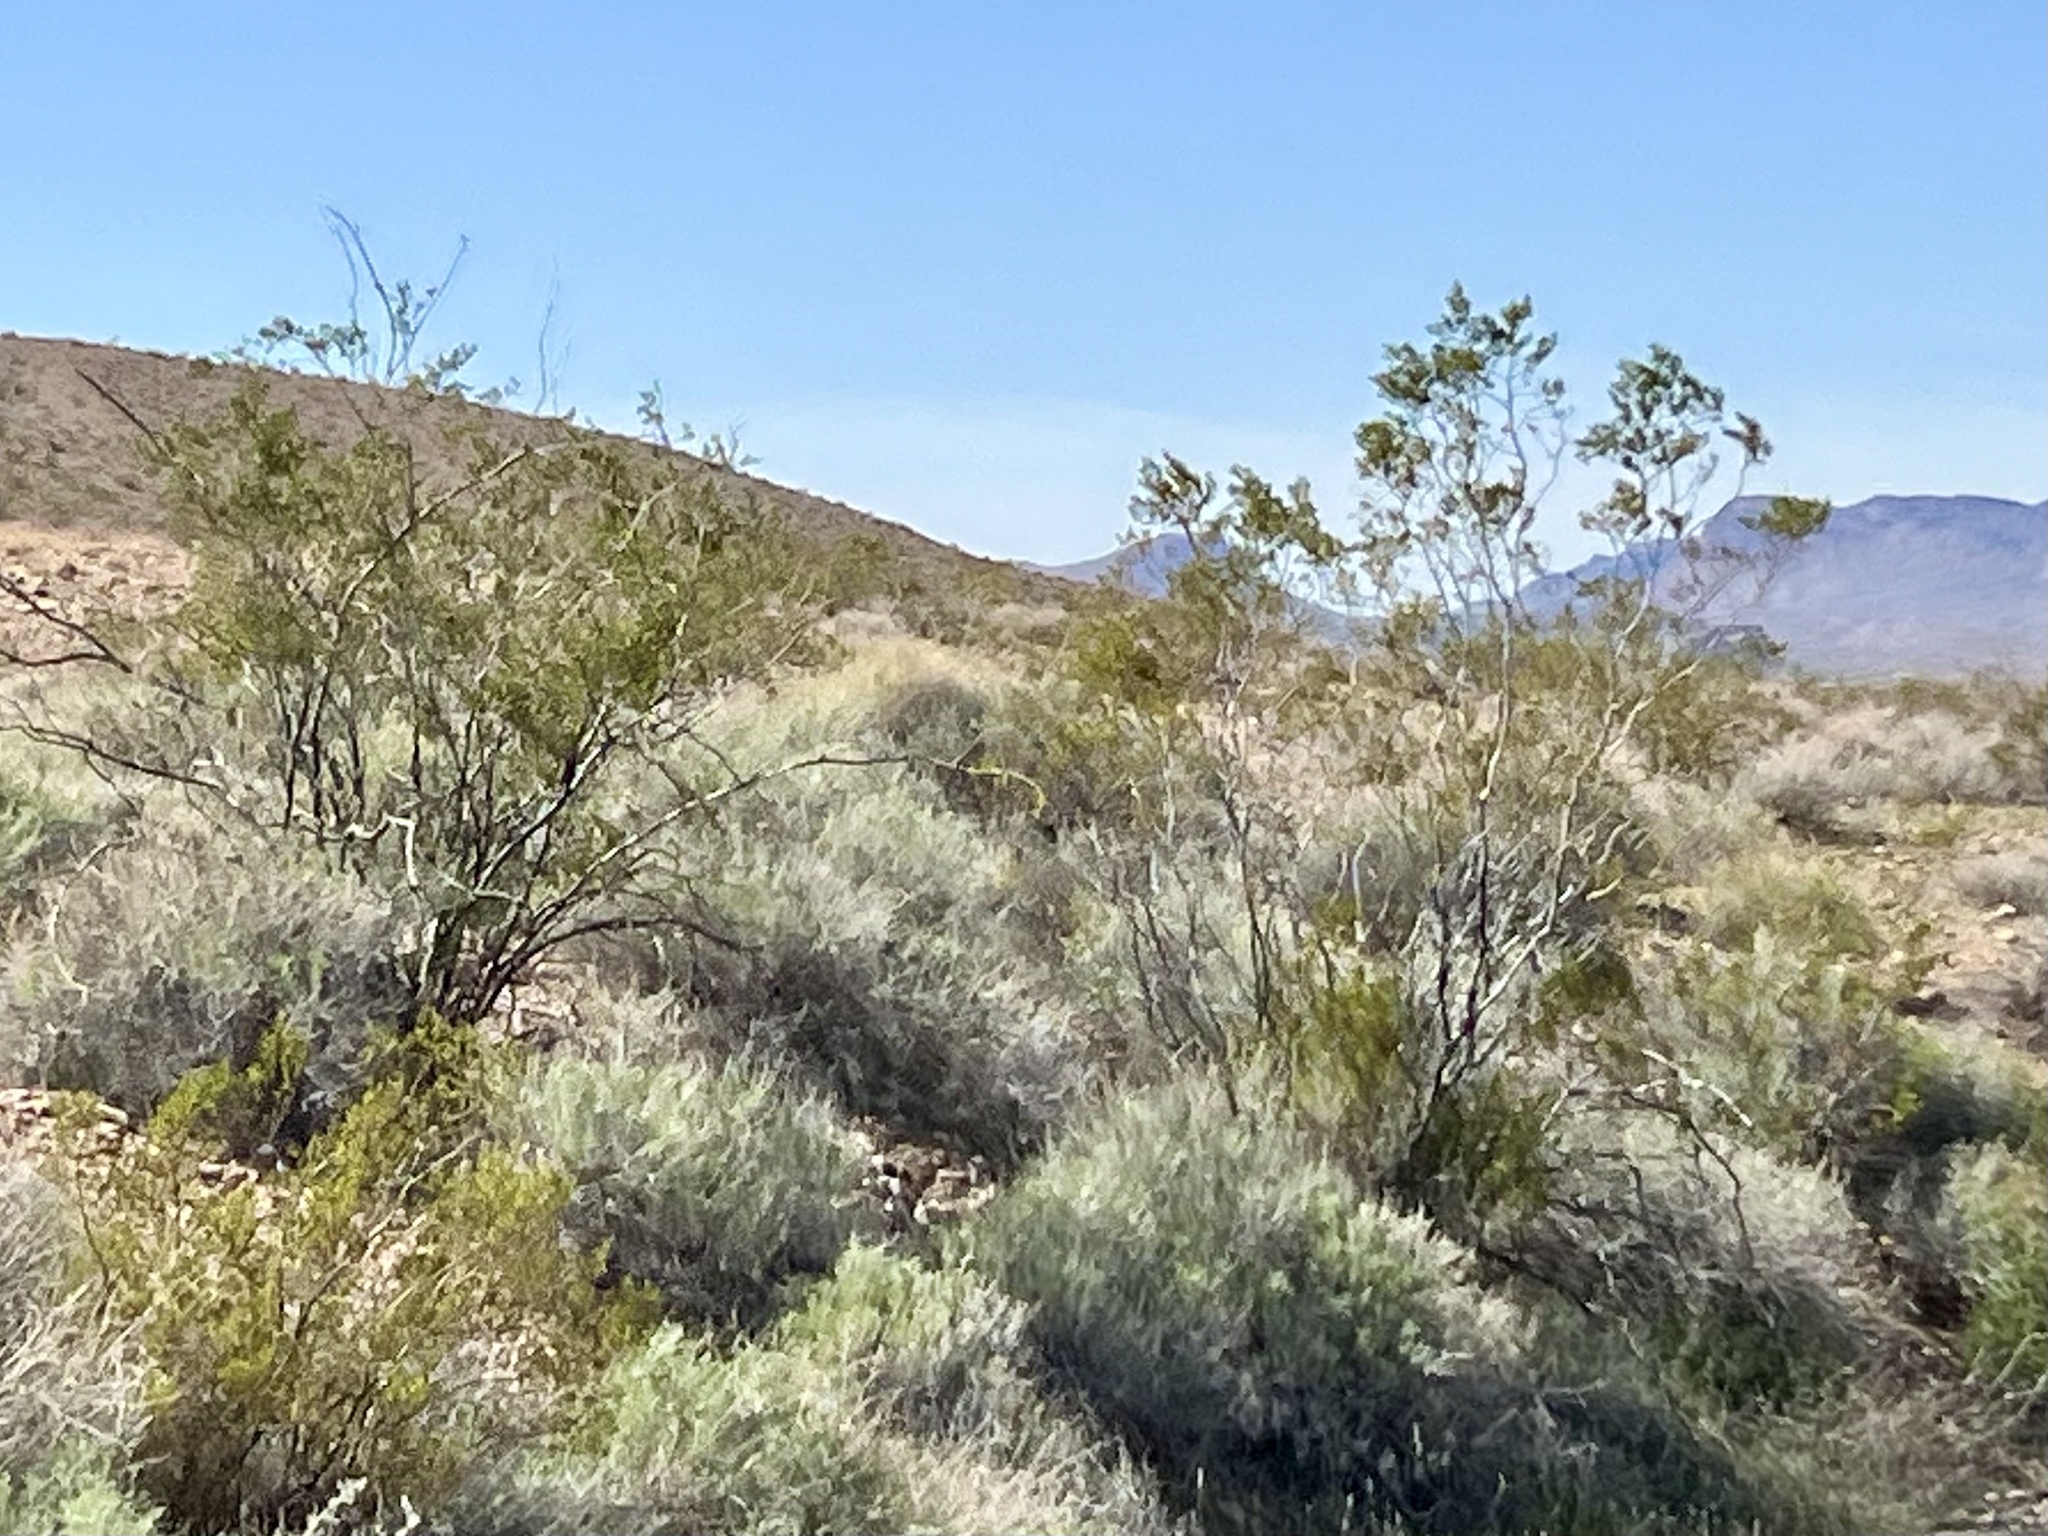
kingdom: Plantae
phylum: Tracheophyta
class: Magnoliopsida
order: Zygophyllales
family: Zygophyllaceae
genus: Larrea
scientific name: Larrea tridentata
